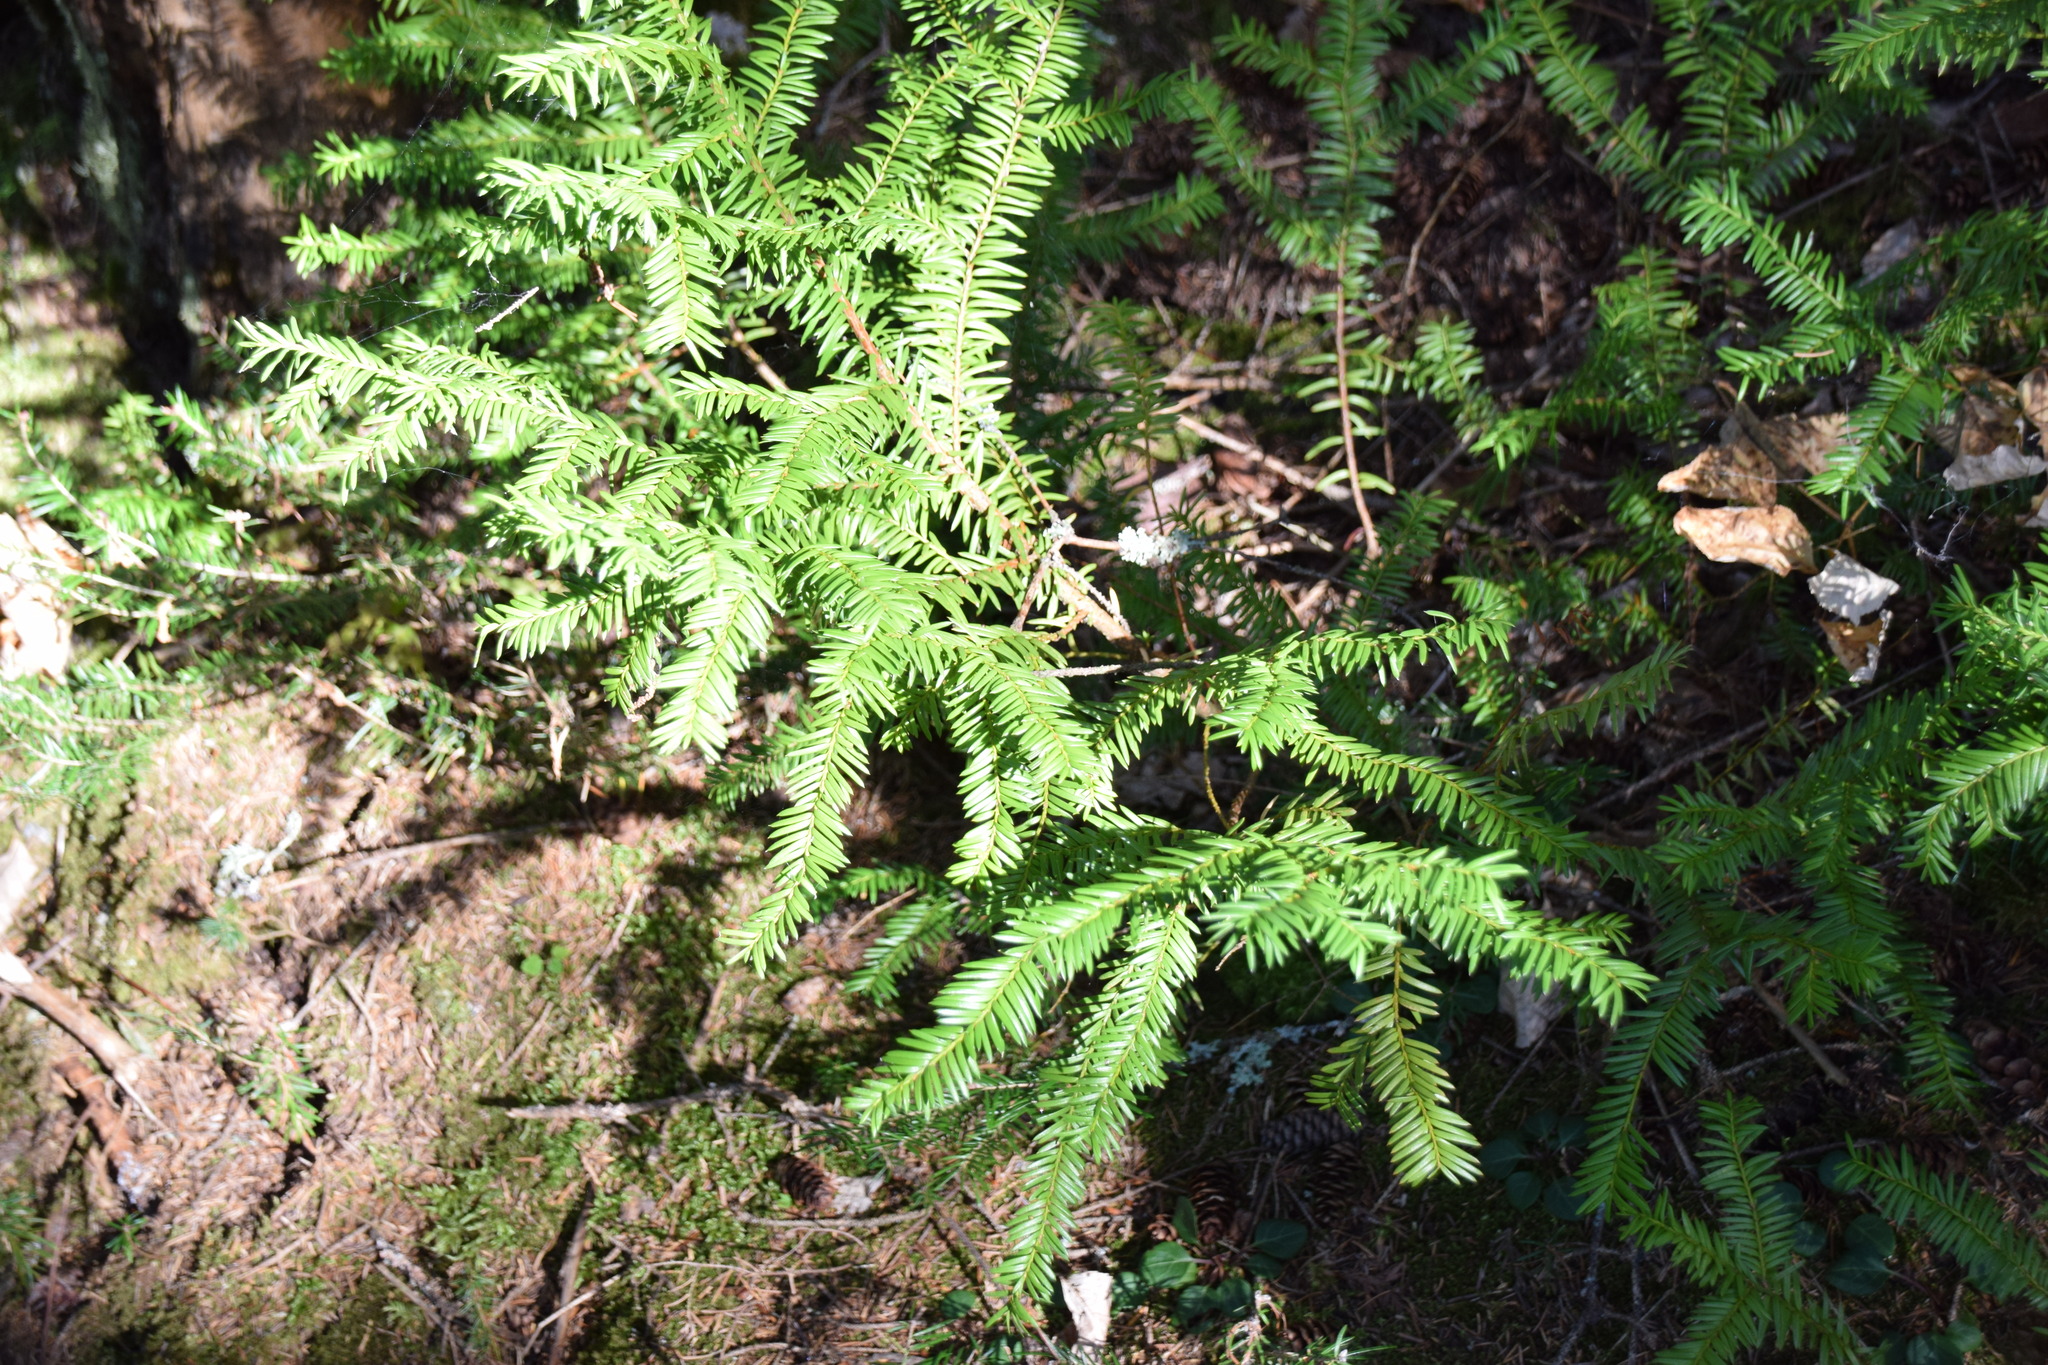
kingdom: Plantae
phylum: Tracheophyta
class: Pinopsida
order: Pinales
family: Taxaceae
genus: Taxus
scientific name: Taxus canadensis
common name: American yew
